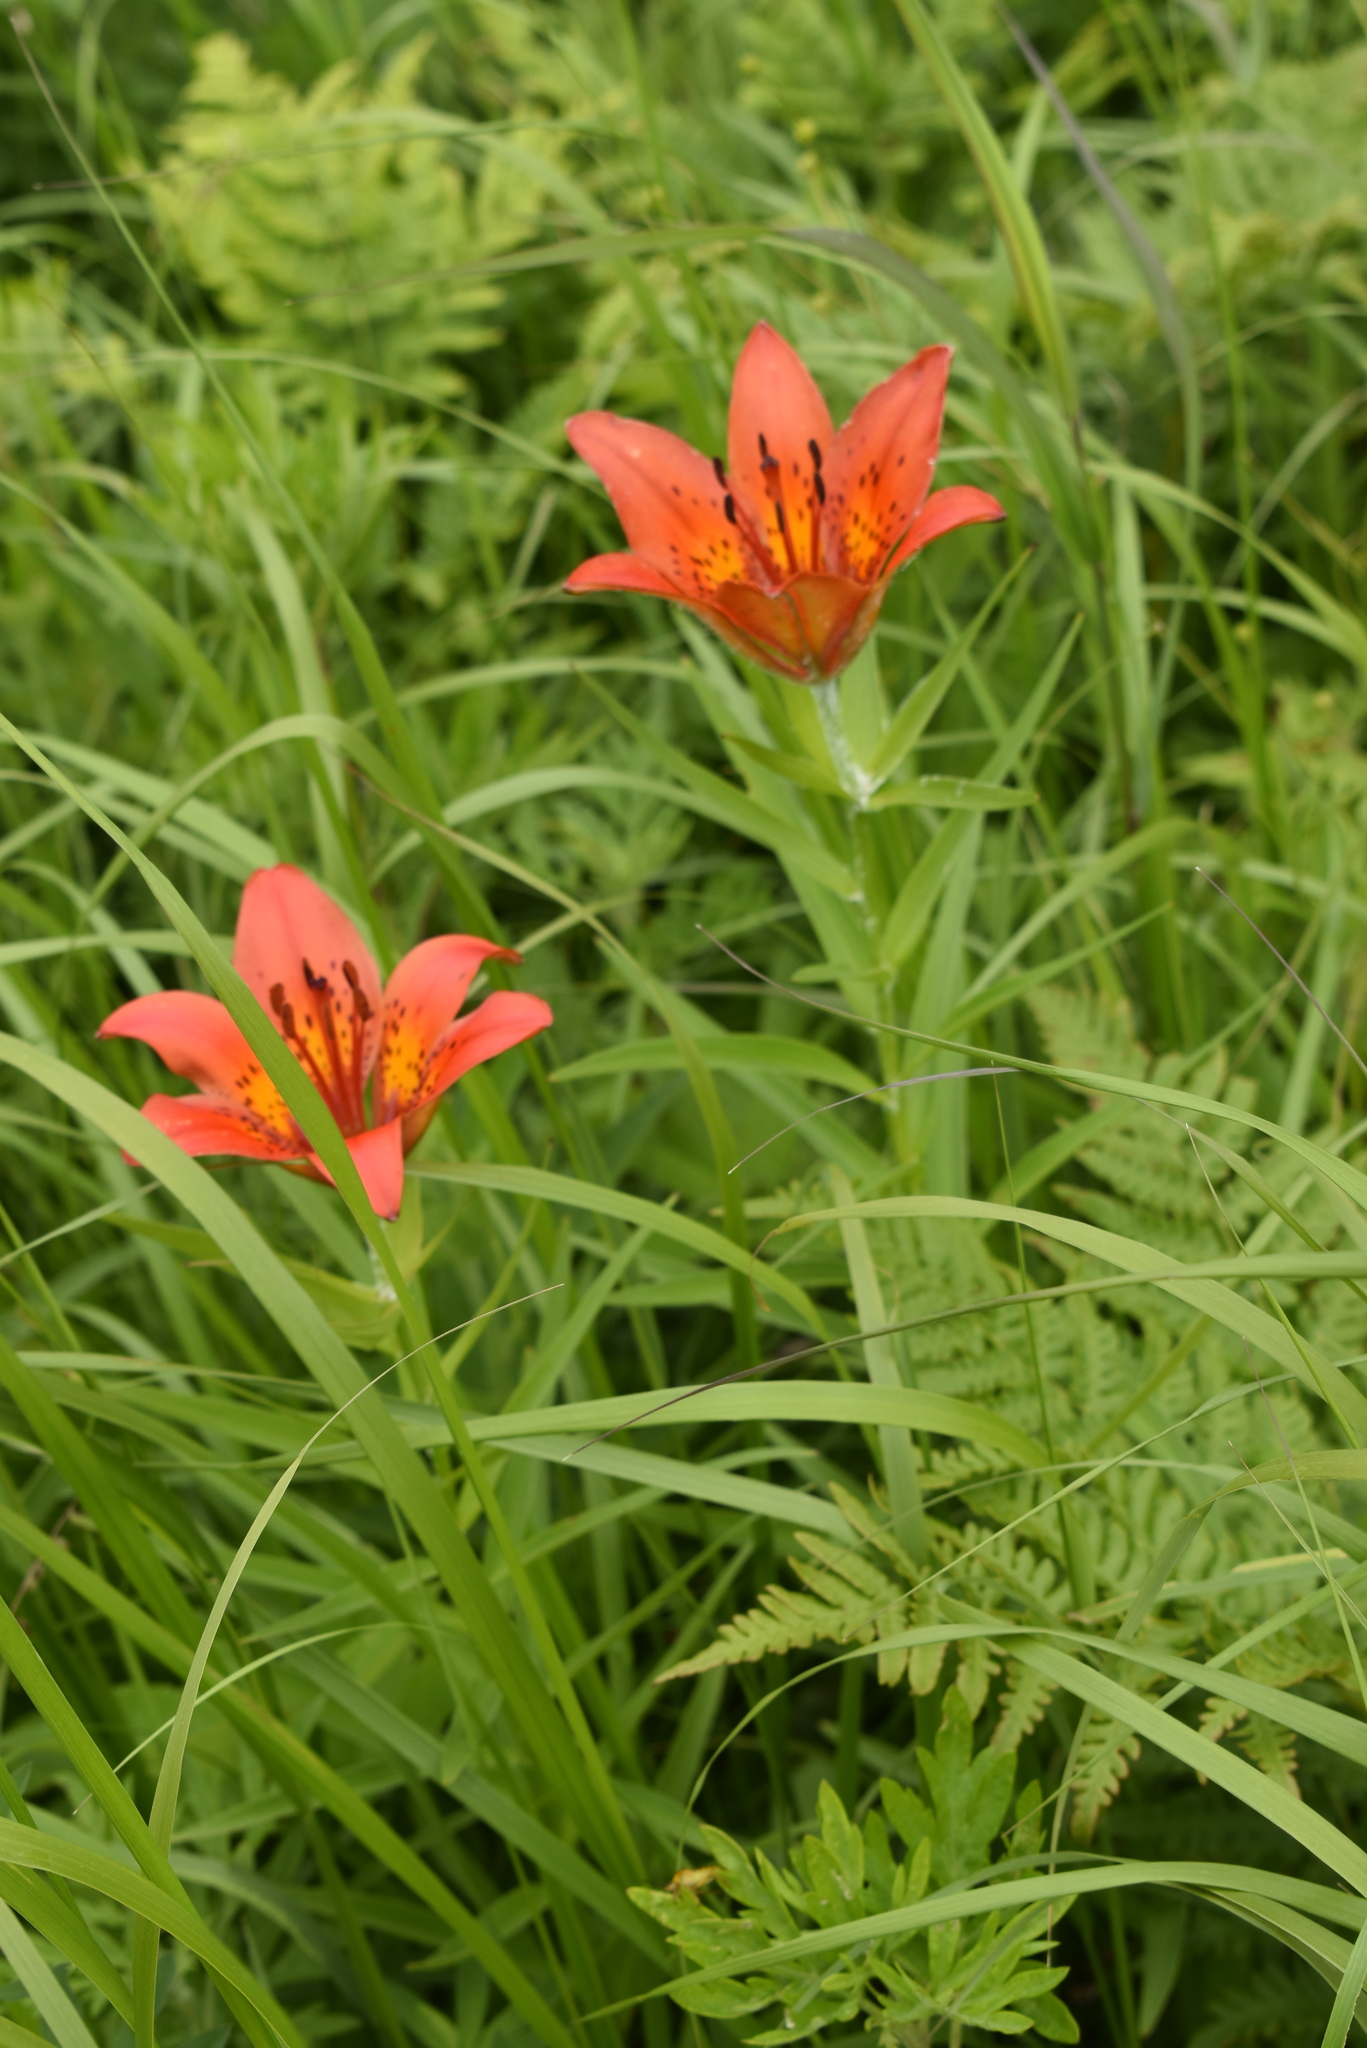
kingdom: Plantae
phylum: Tracheophyta
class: Liliopsida
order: Liliales
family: Liliaceae
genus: Lilium
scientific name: Lilium pensylvanicum
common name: Candlestick lily
